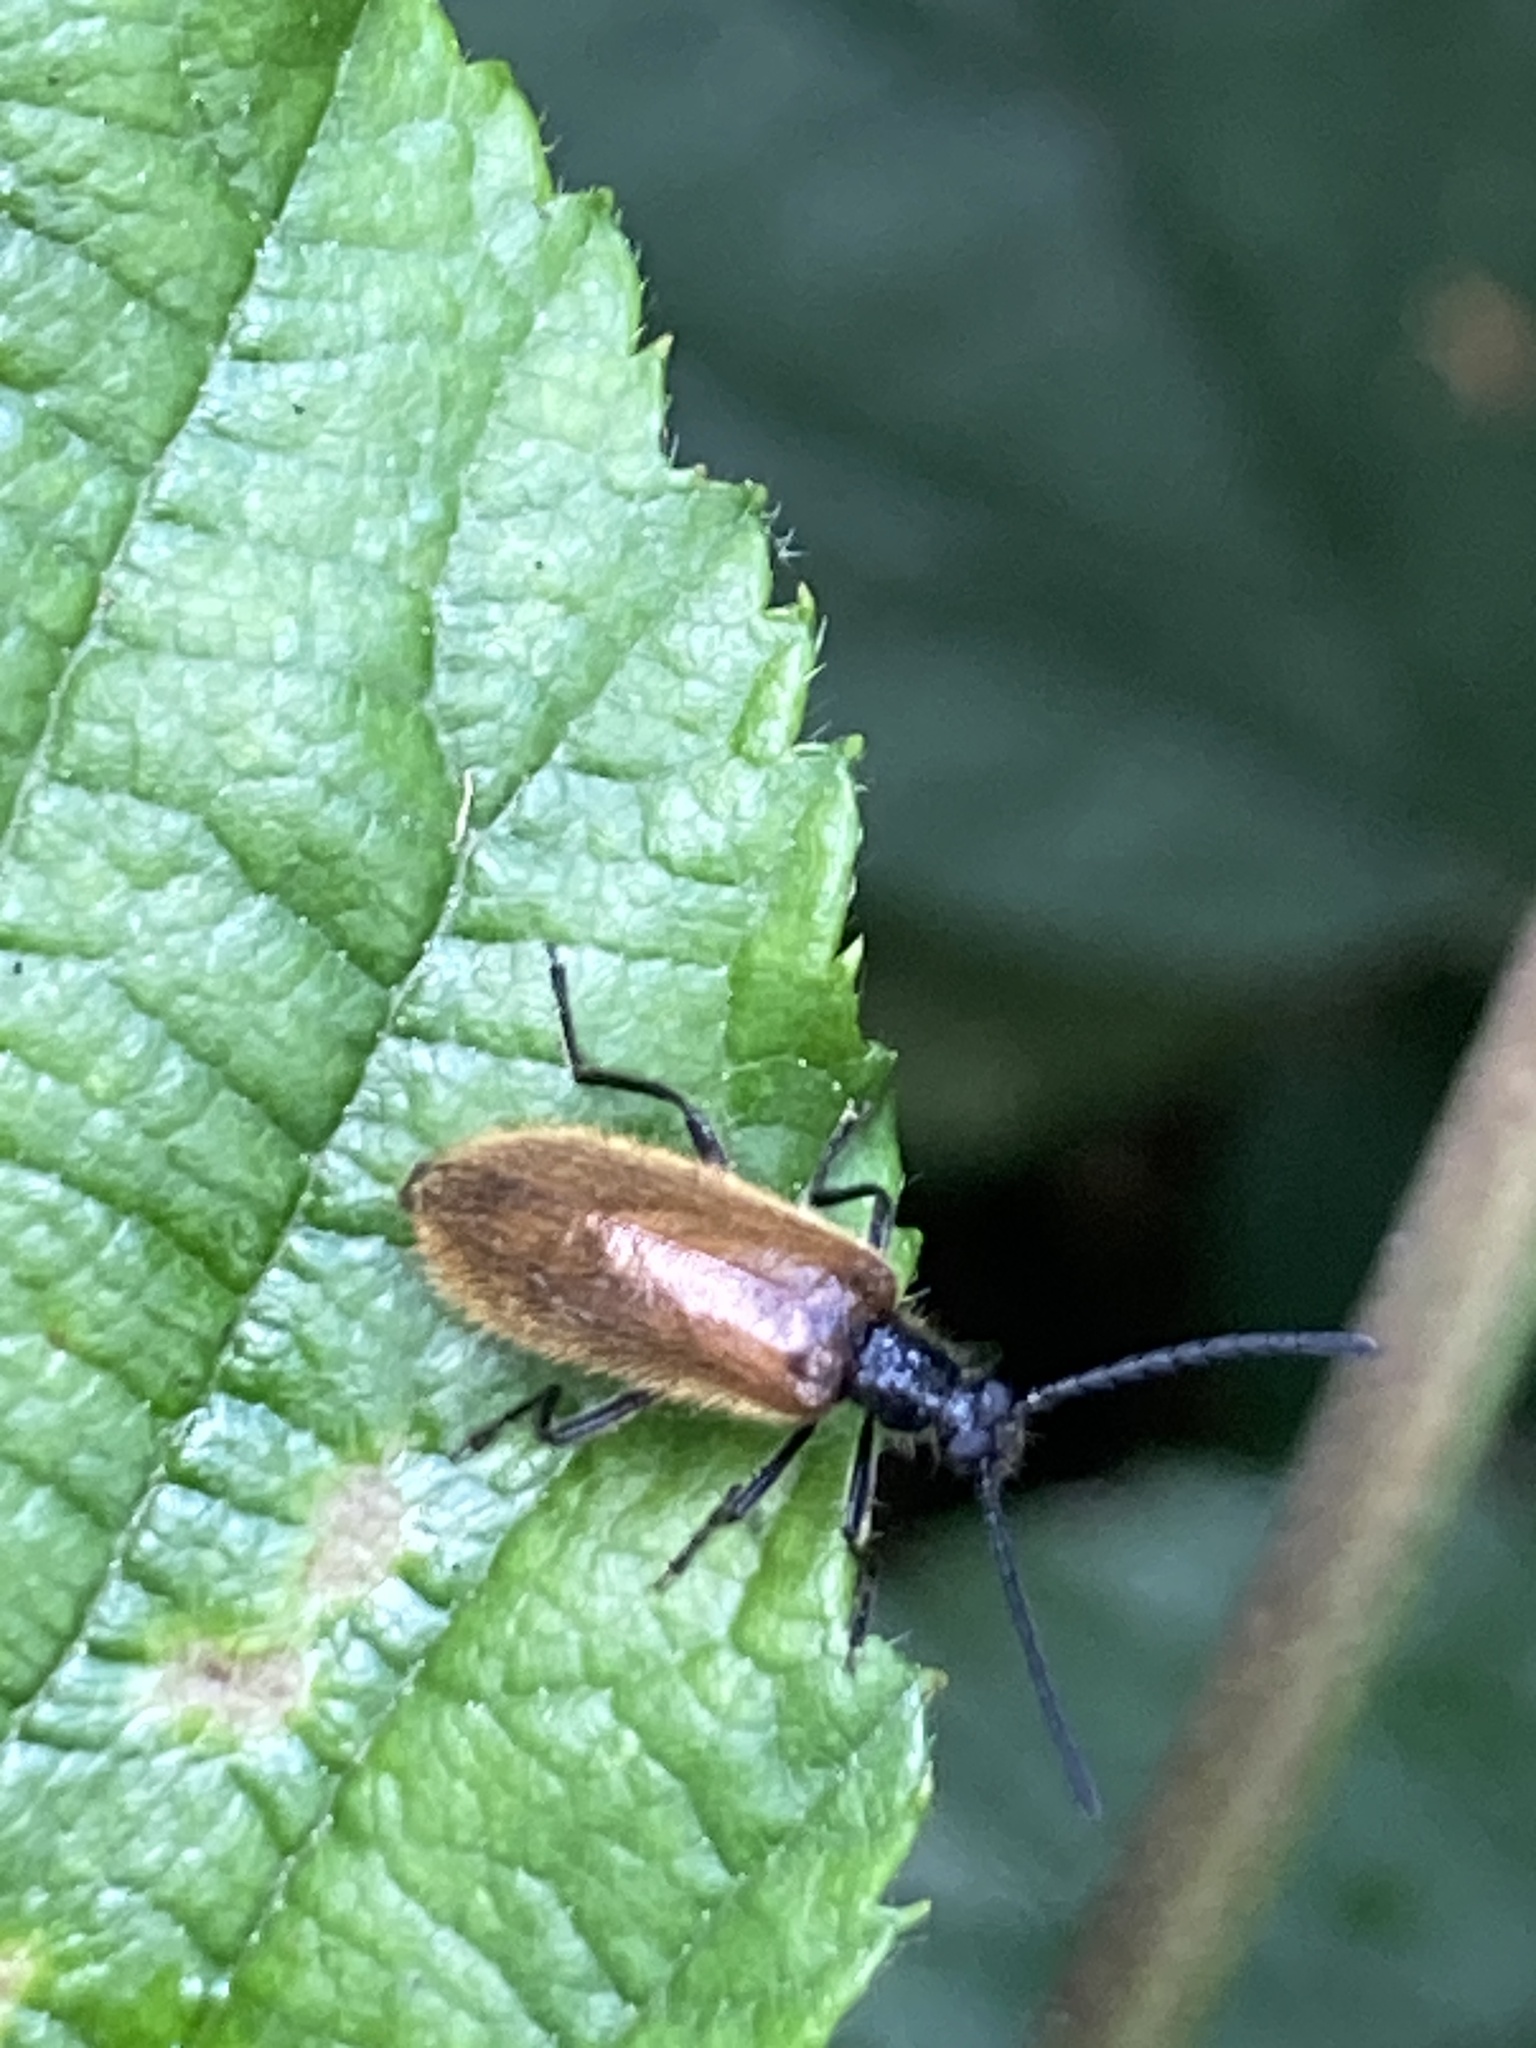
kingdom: Animalia
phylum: Arthropoda
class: Insecta
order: Coleoptera
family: Tenebrionidae
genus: Lagria
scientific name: Lagria hirta
